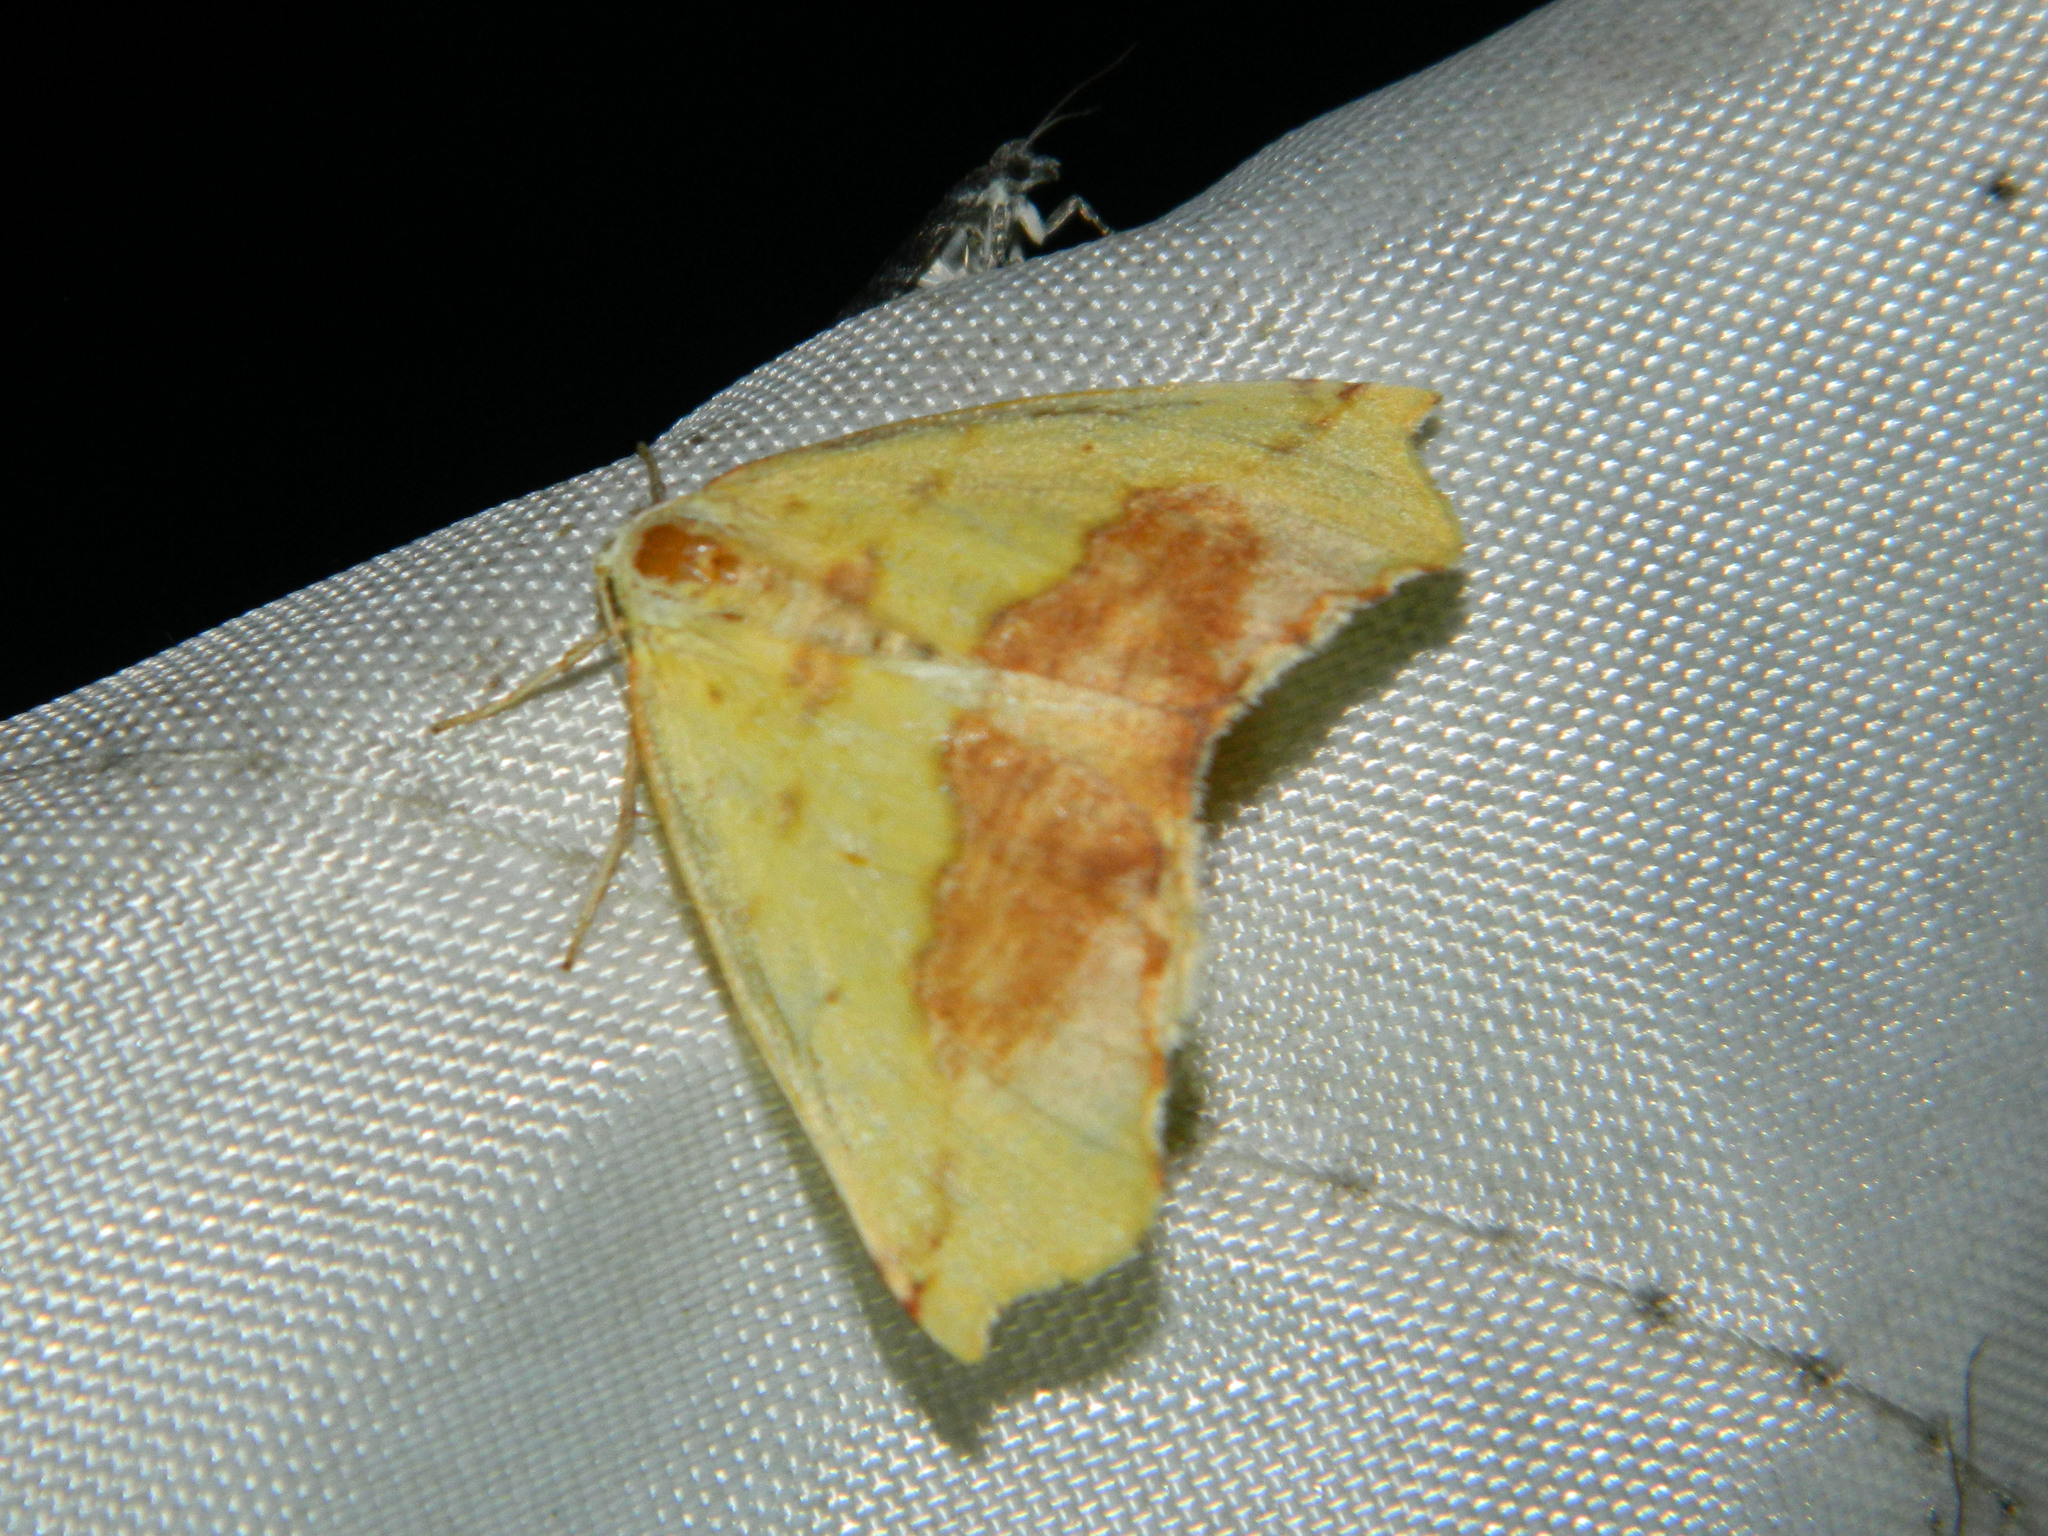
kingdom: Animalia
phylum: Arthropoda
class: Insecta
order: Lepidoptera
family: Geometridae
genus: Sicya
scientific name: Sicya macularia
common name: Sharp-lined yellow
